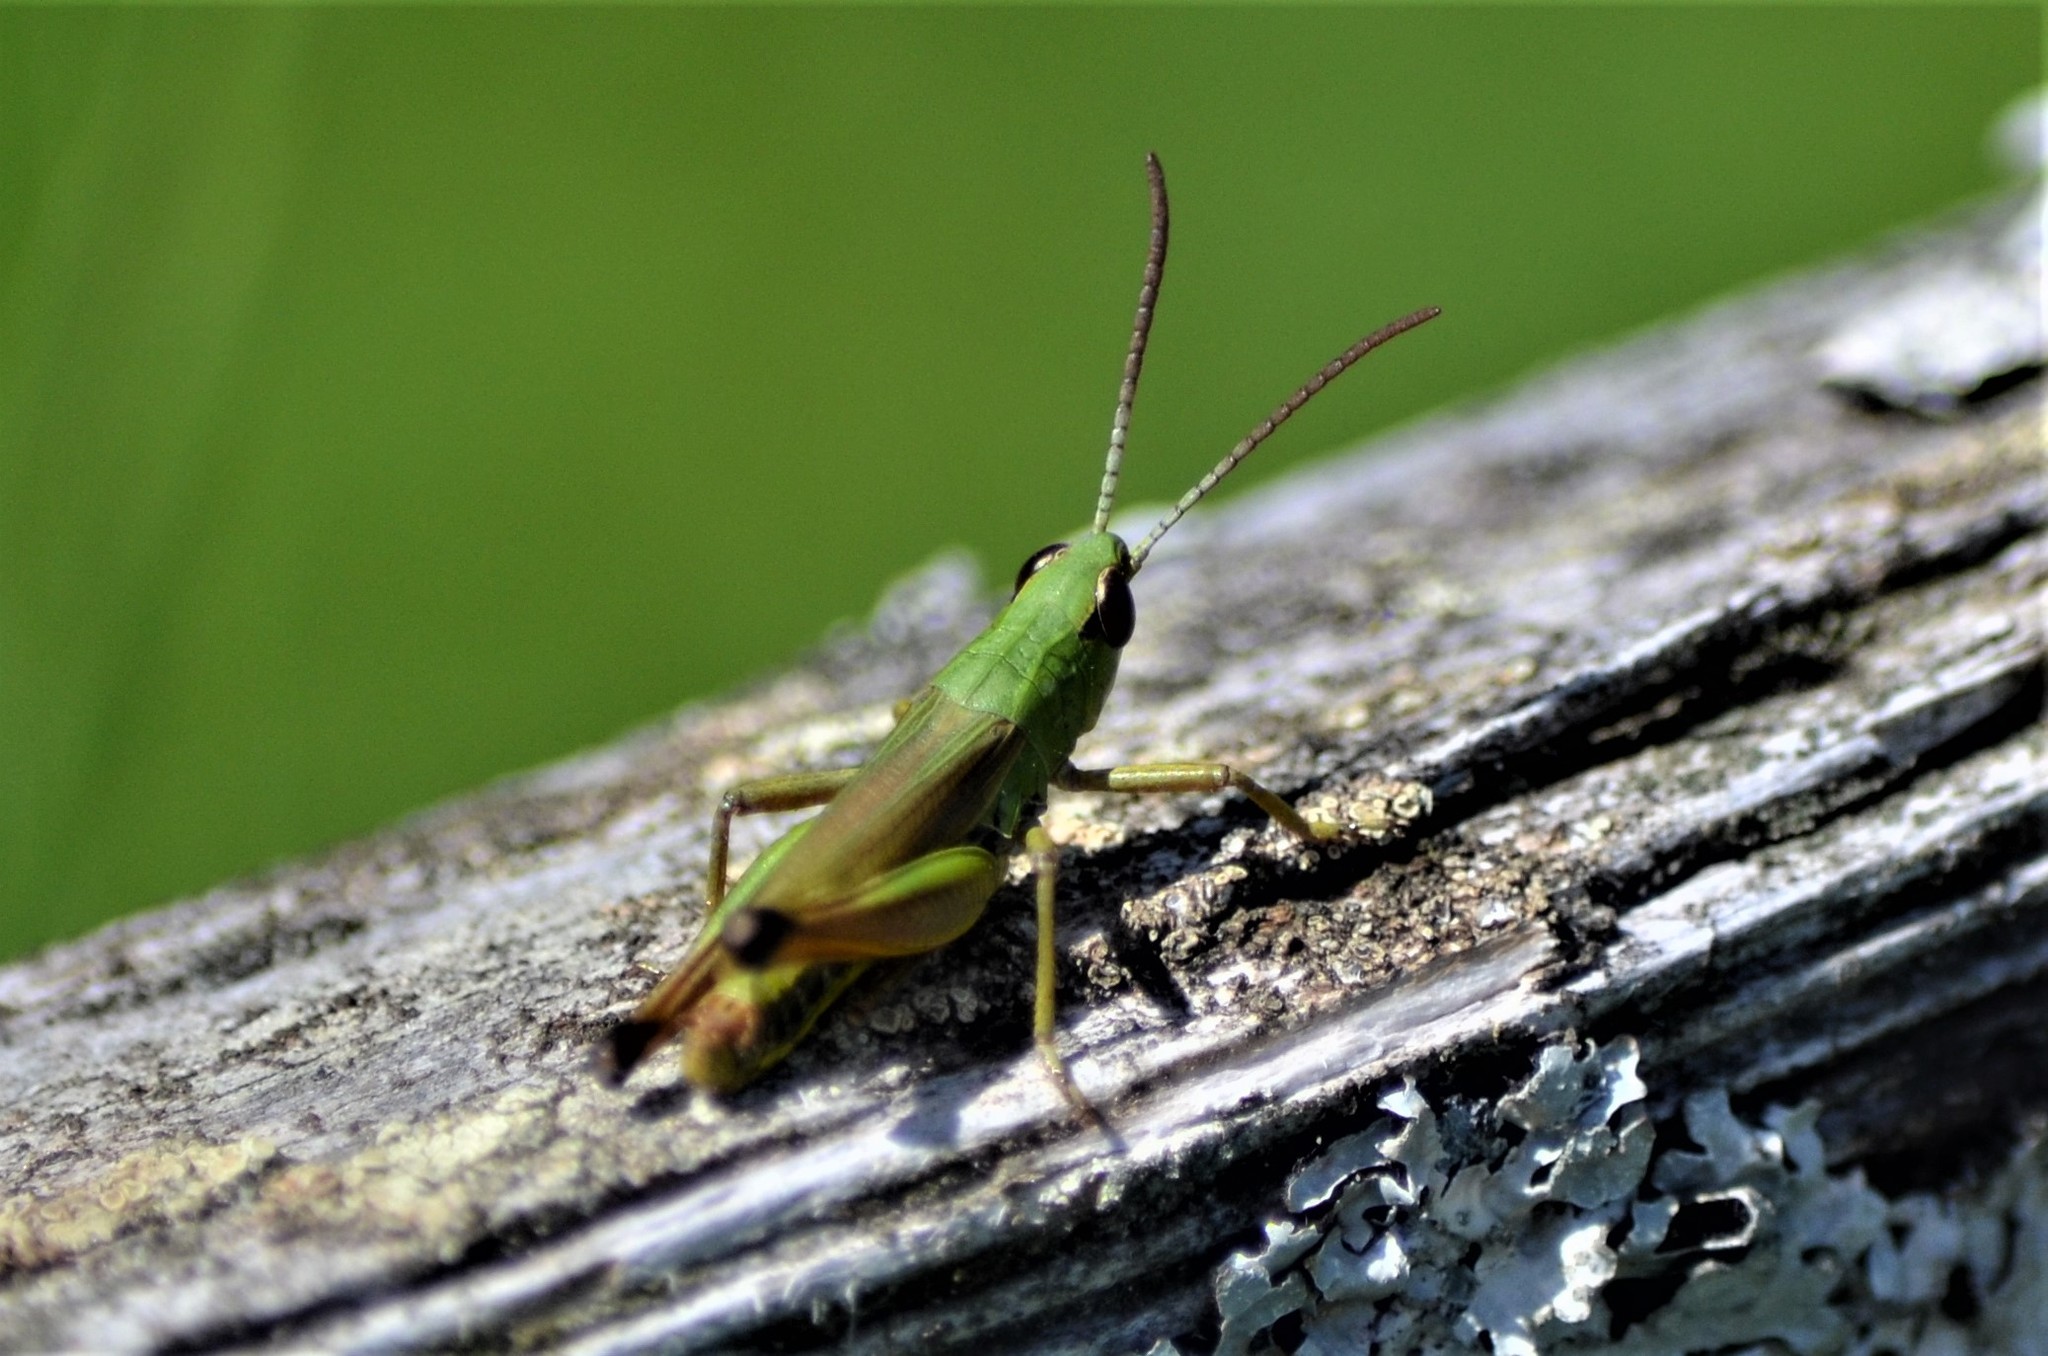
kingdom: Animalia
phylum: Arthropoda
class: Insecta
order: Orthoptera
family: Acrididae
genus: Pseudochorthippus
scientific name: Pseudochorthippus parallelus
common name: Meadow grasshopper
